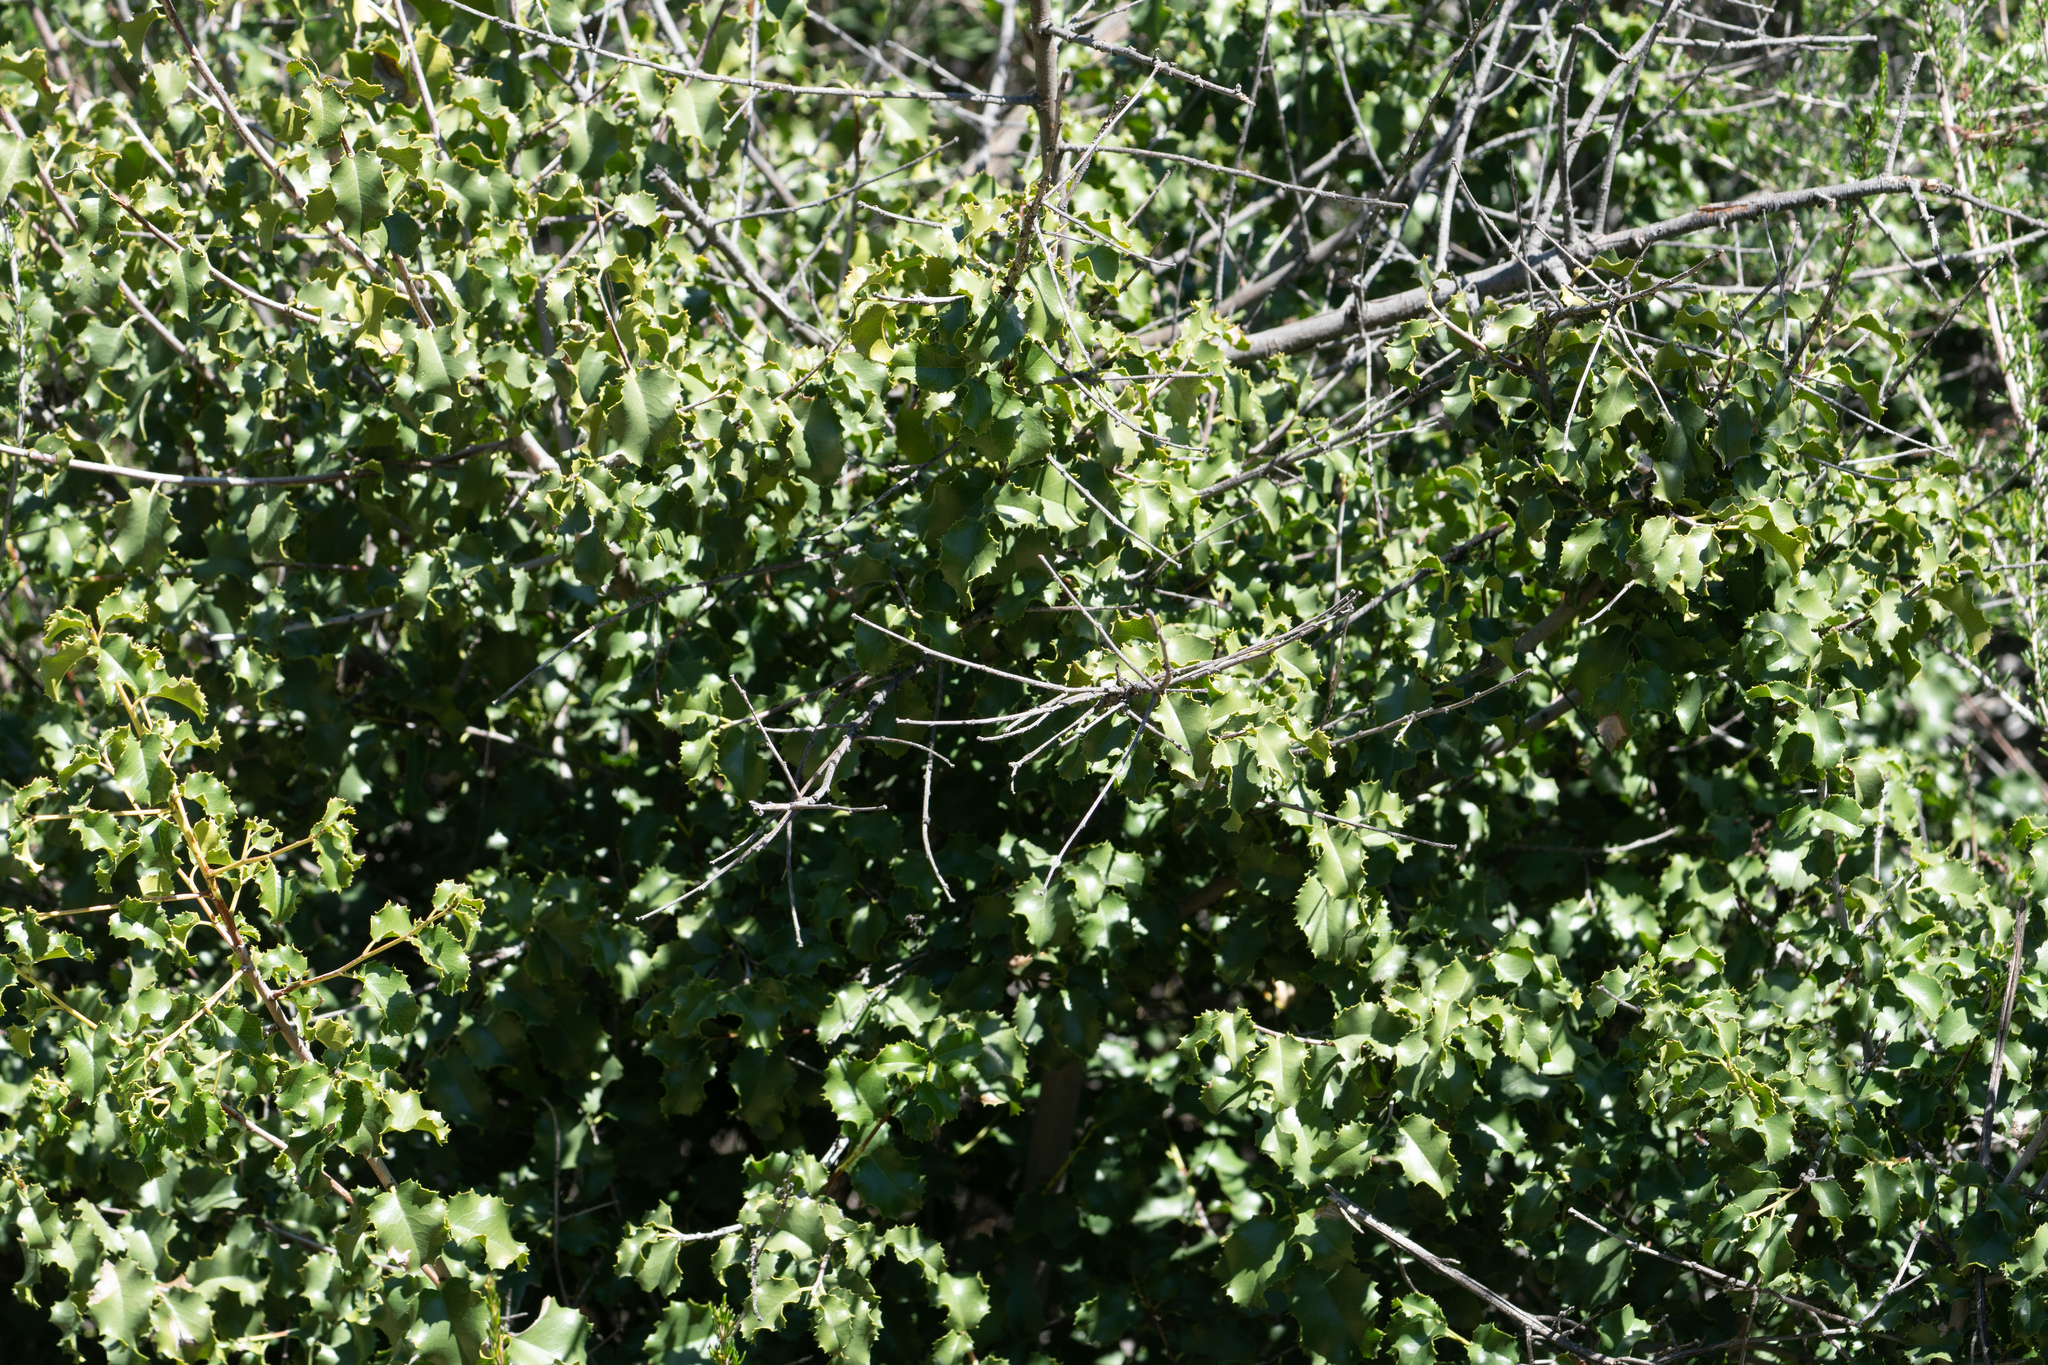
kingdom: Plantae
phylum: Tracheophyta
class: Magnoliopsida
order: Rosales
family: Rosaceae
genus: Prunus
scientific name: Prunus ilicifolia
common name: Hollyleaf cherry
